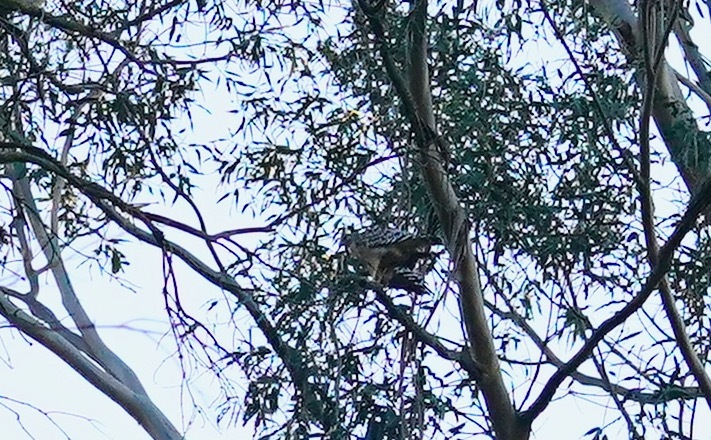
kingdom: Animalia
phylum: Chordata
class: Aves
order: Accipitriformes
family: Accipitridae
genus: Buteo
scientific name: Buteo lineatus
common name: Red-shouldered hawk
